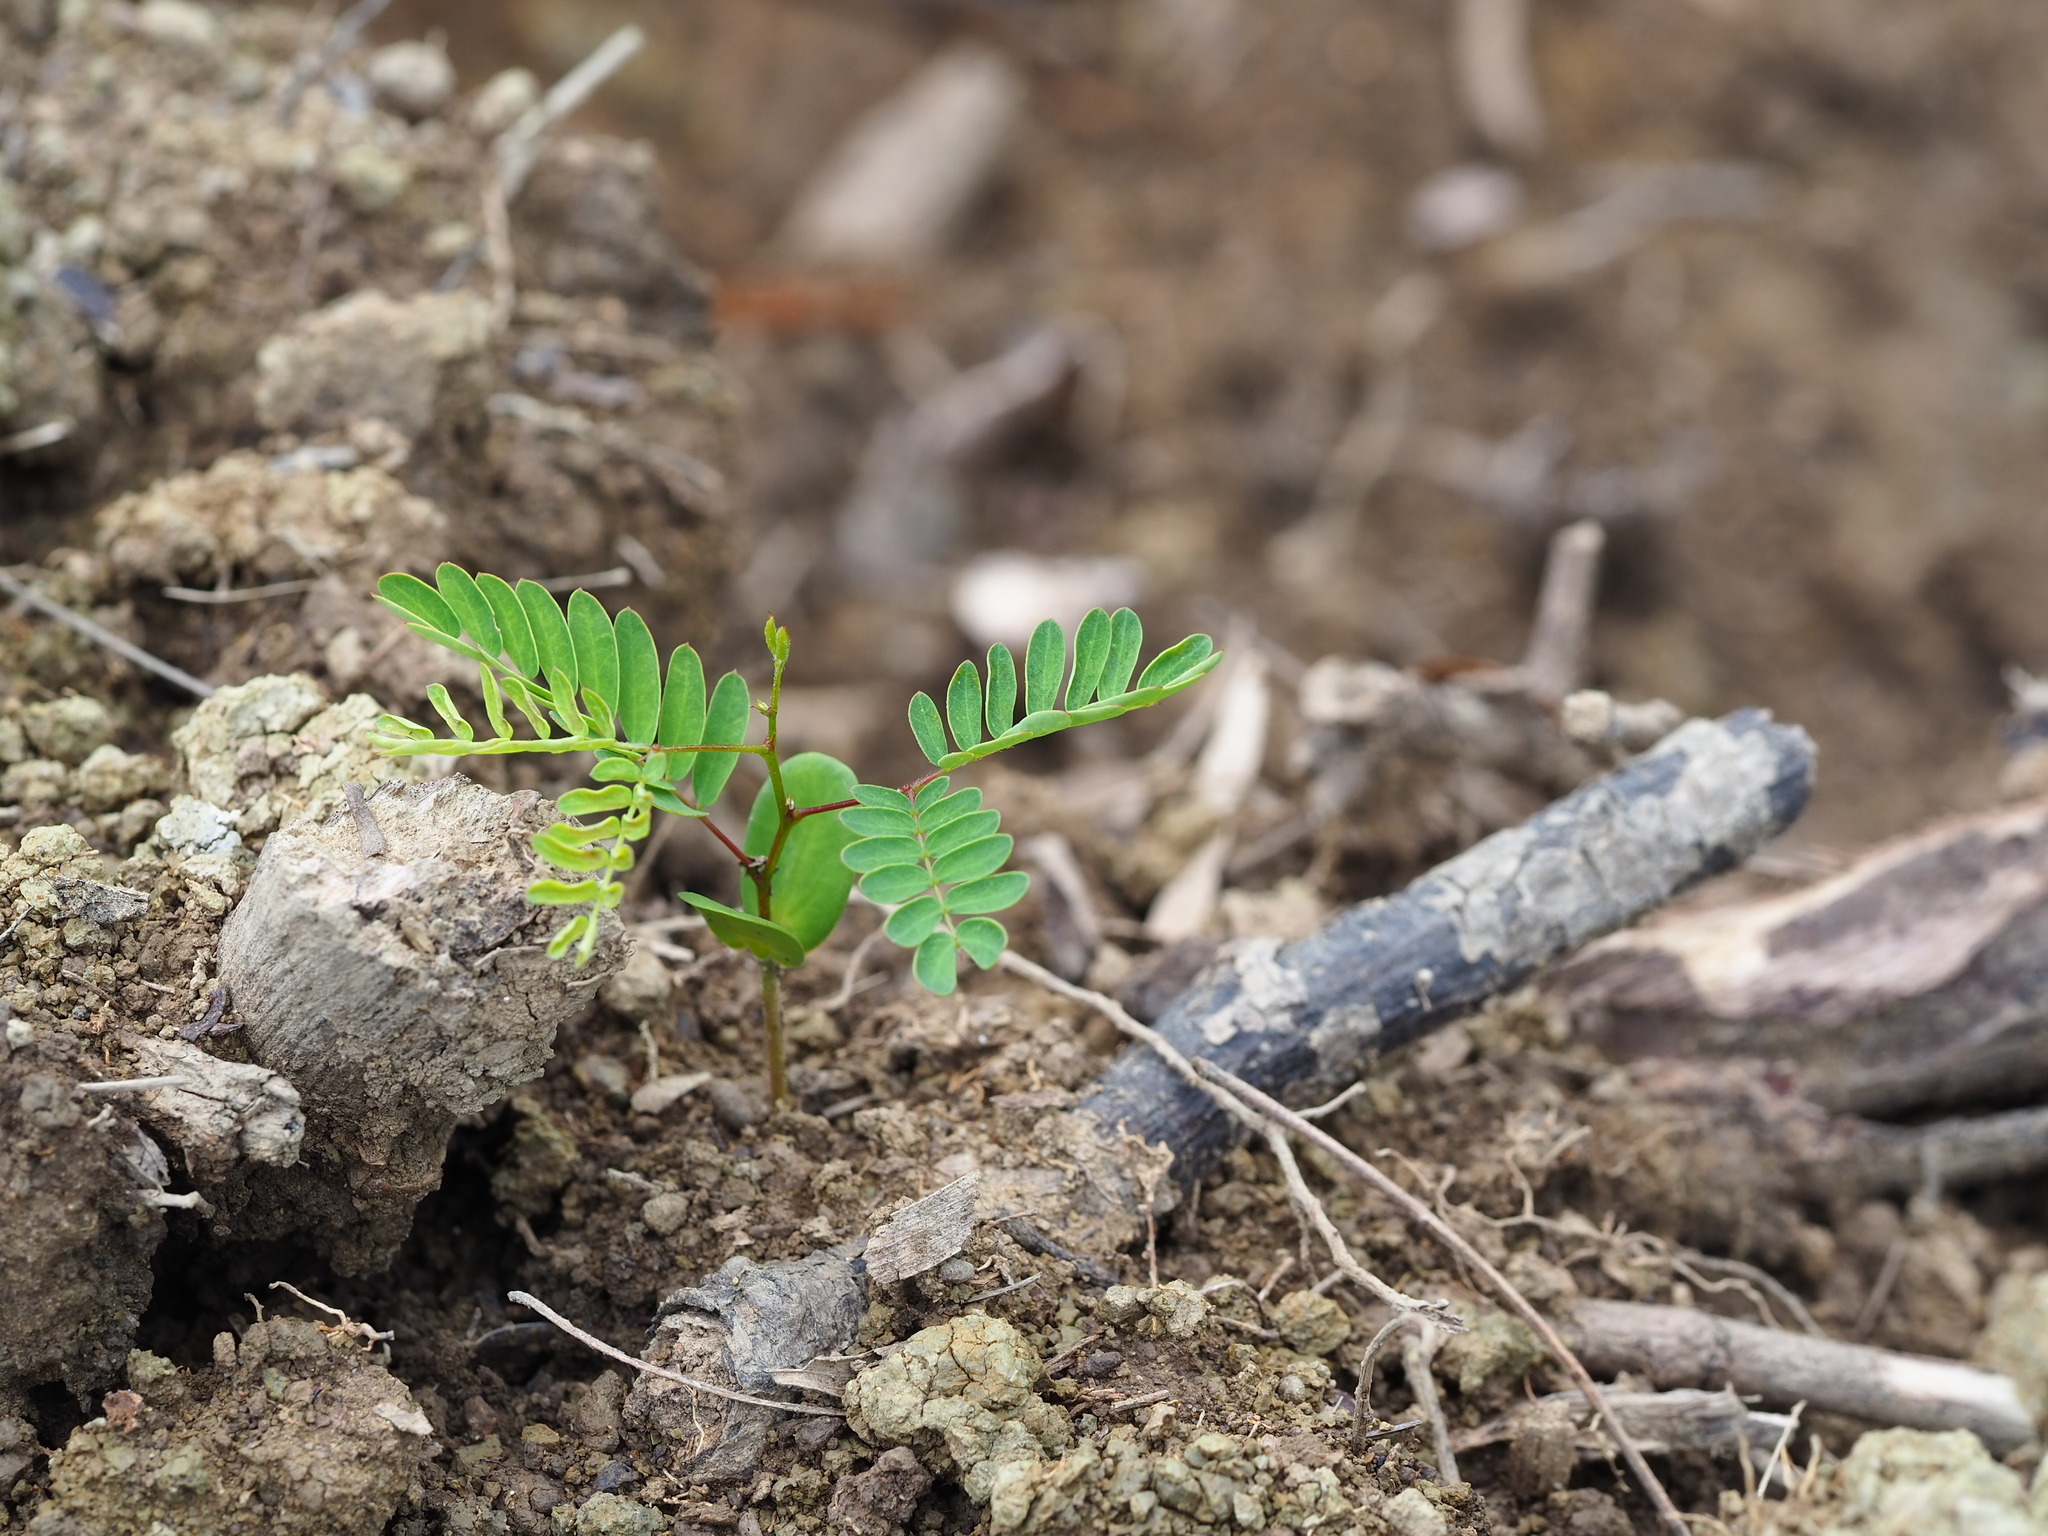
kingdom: Plantae
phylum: Tracheophyta
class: Magnoliopsida
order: Fabales
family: Fabaceae
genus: Leucaena
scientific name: Leucaena leucocephala
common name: White leadtree
